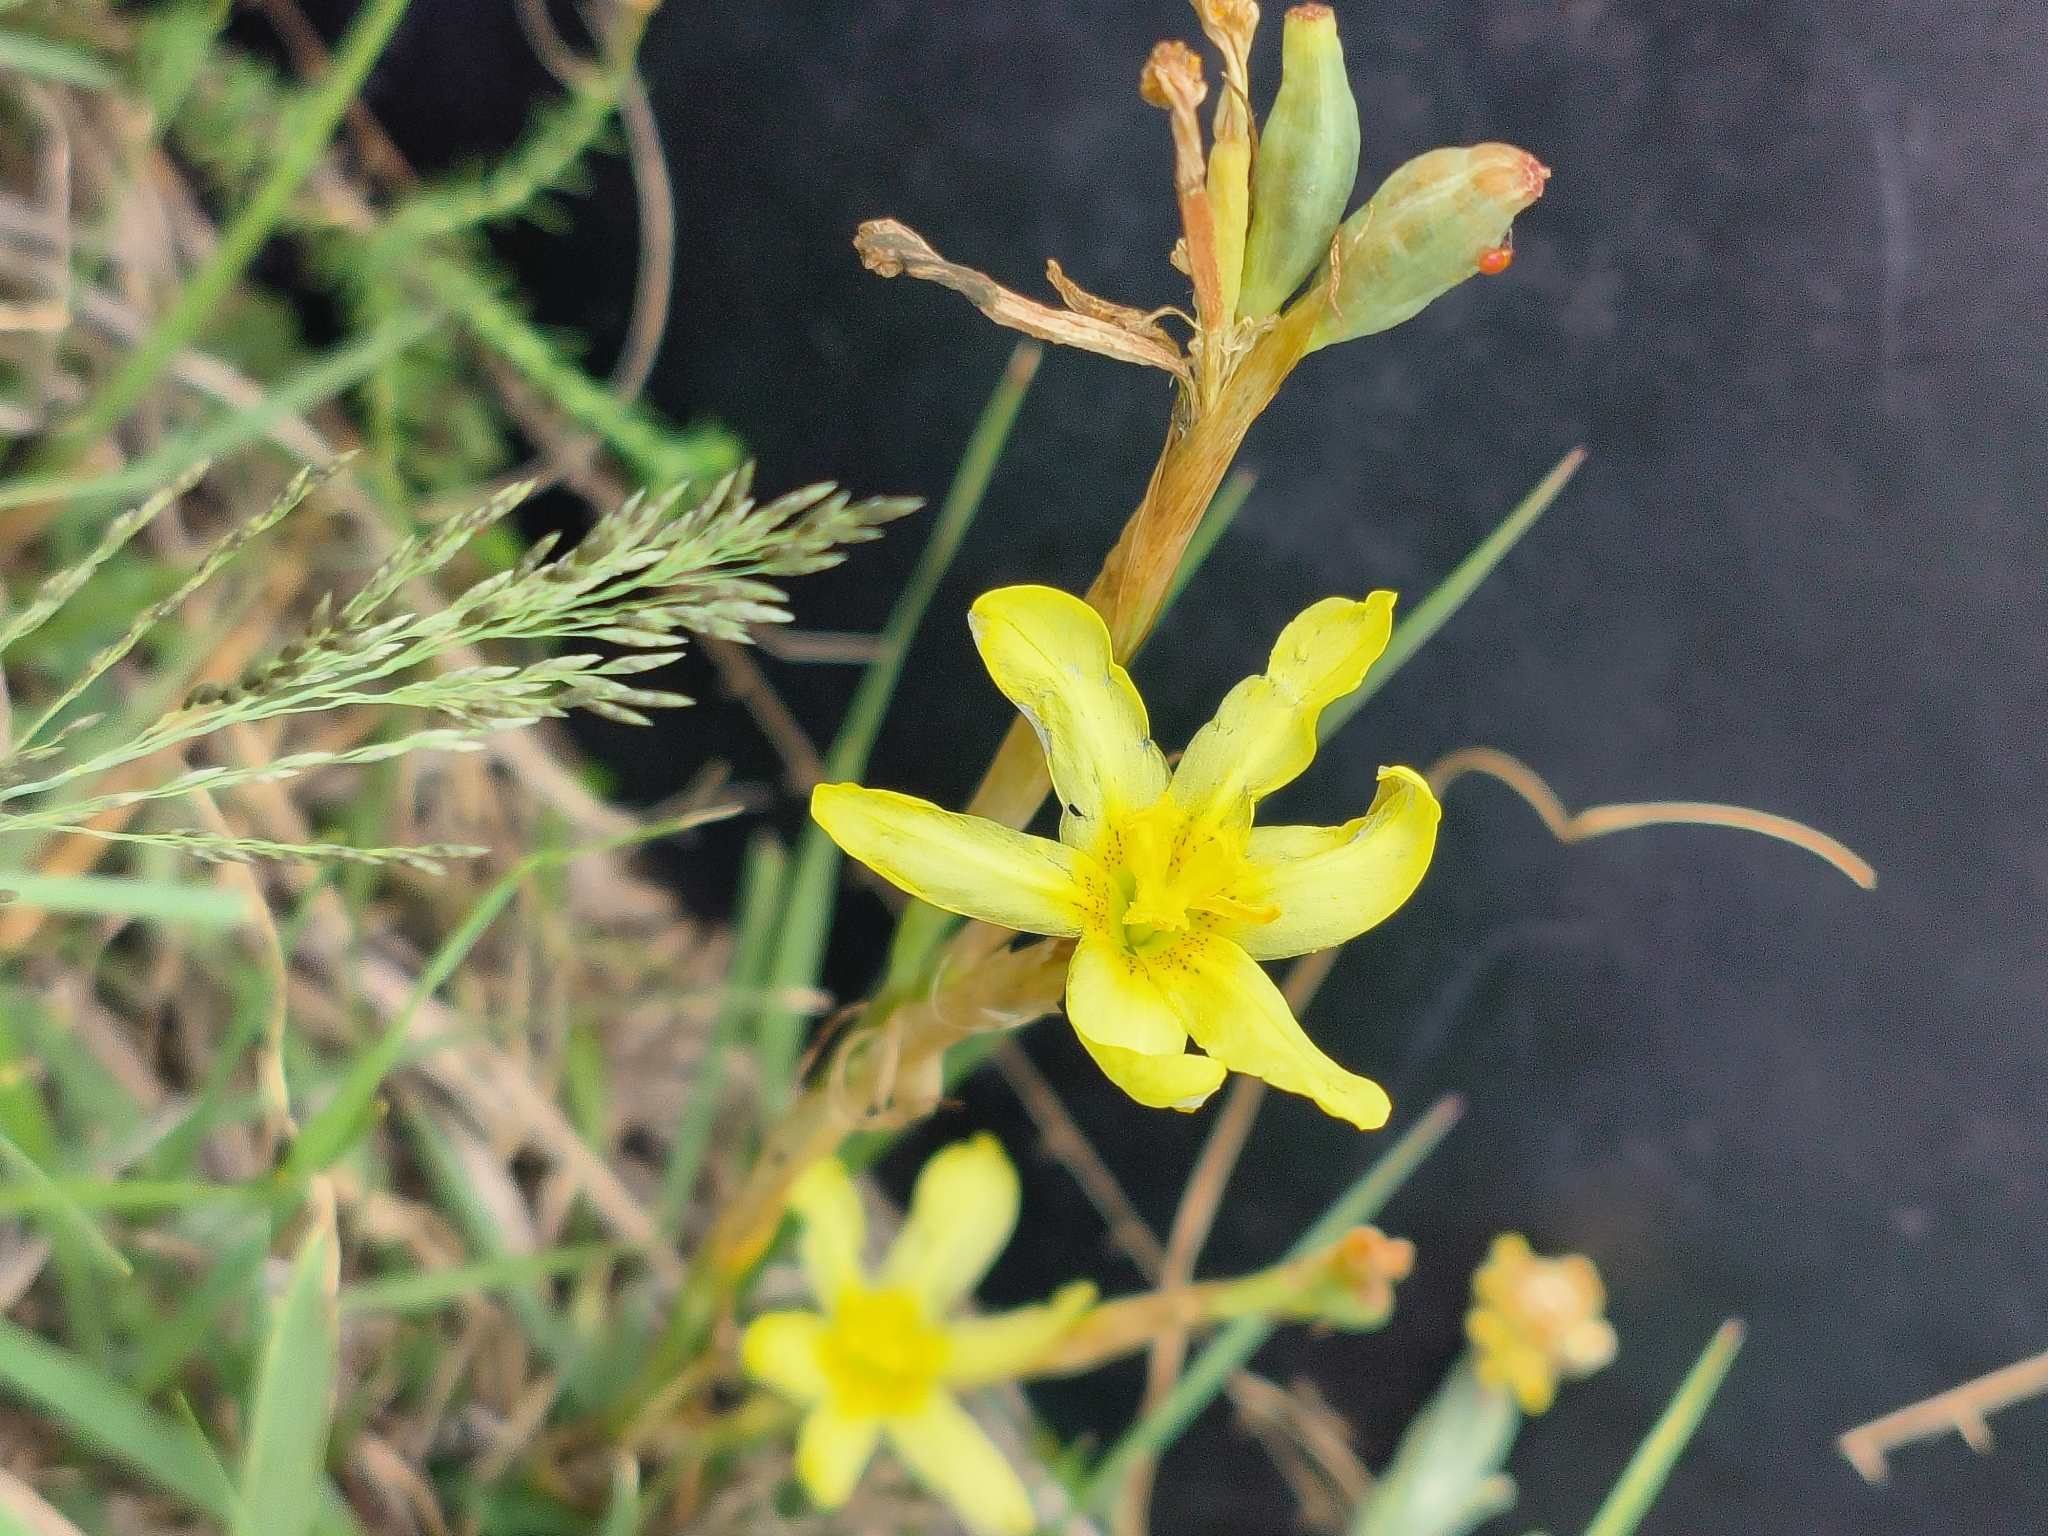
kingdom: Plantae
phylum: Tracheophyta
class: Liliopsida
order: Asparagales
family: Iridaceae
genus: Moraea
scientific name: Moraea pallida
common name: Yellow tulp
